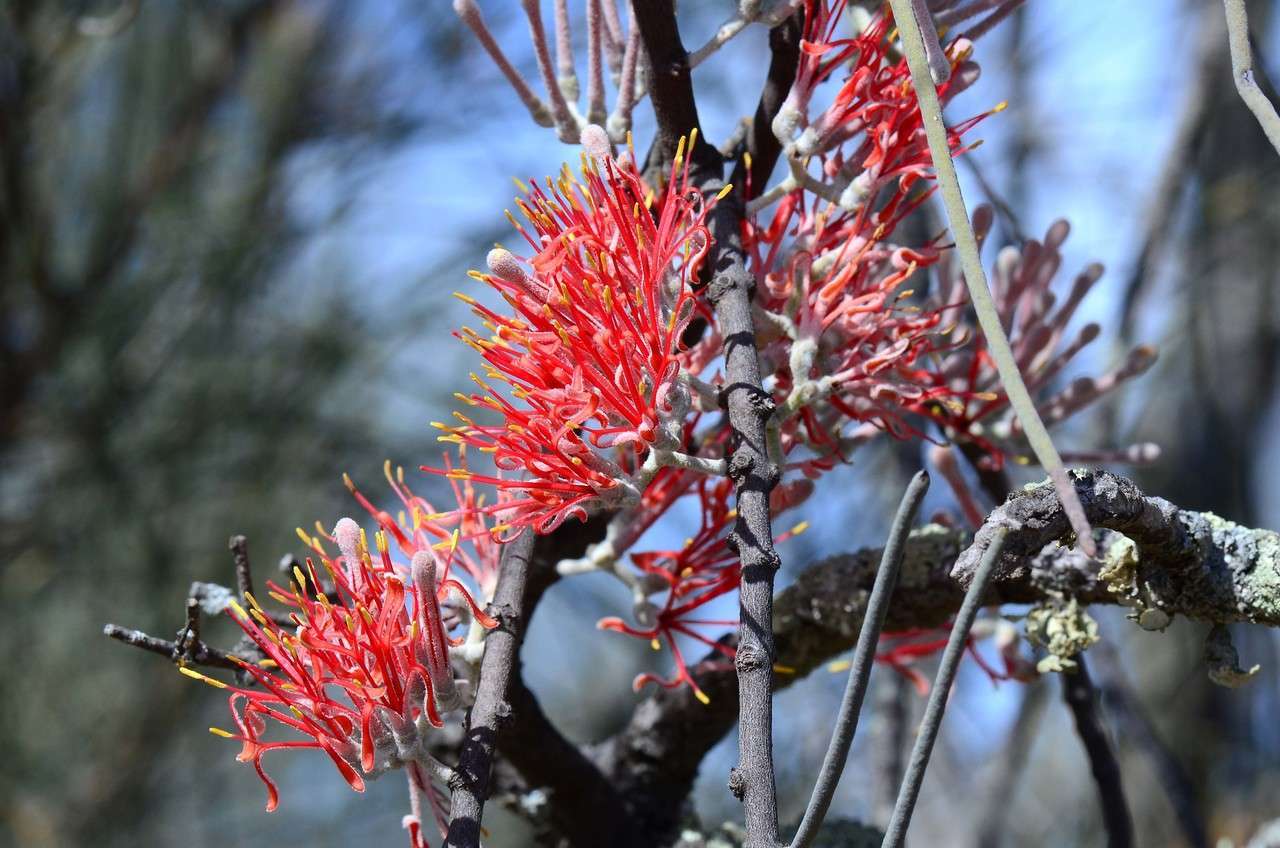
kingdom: Plantae
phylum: Tracheophyta
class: Magnoliopsida
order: Santalales
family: Loranthaceae
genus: Amyema
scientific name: Amyema linophylla
